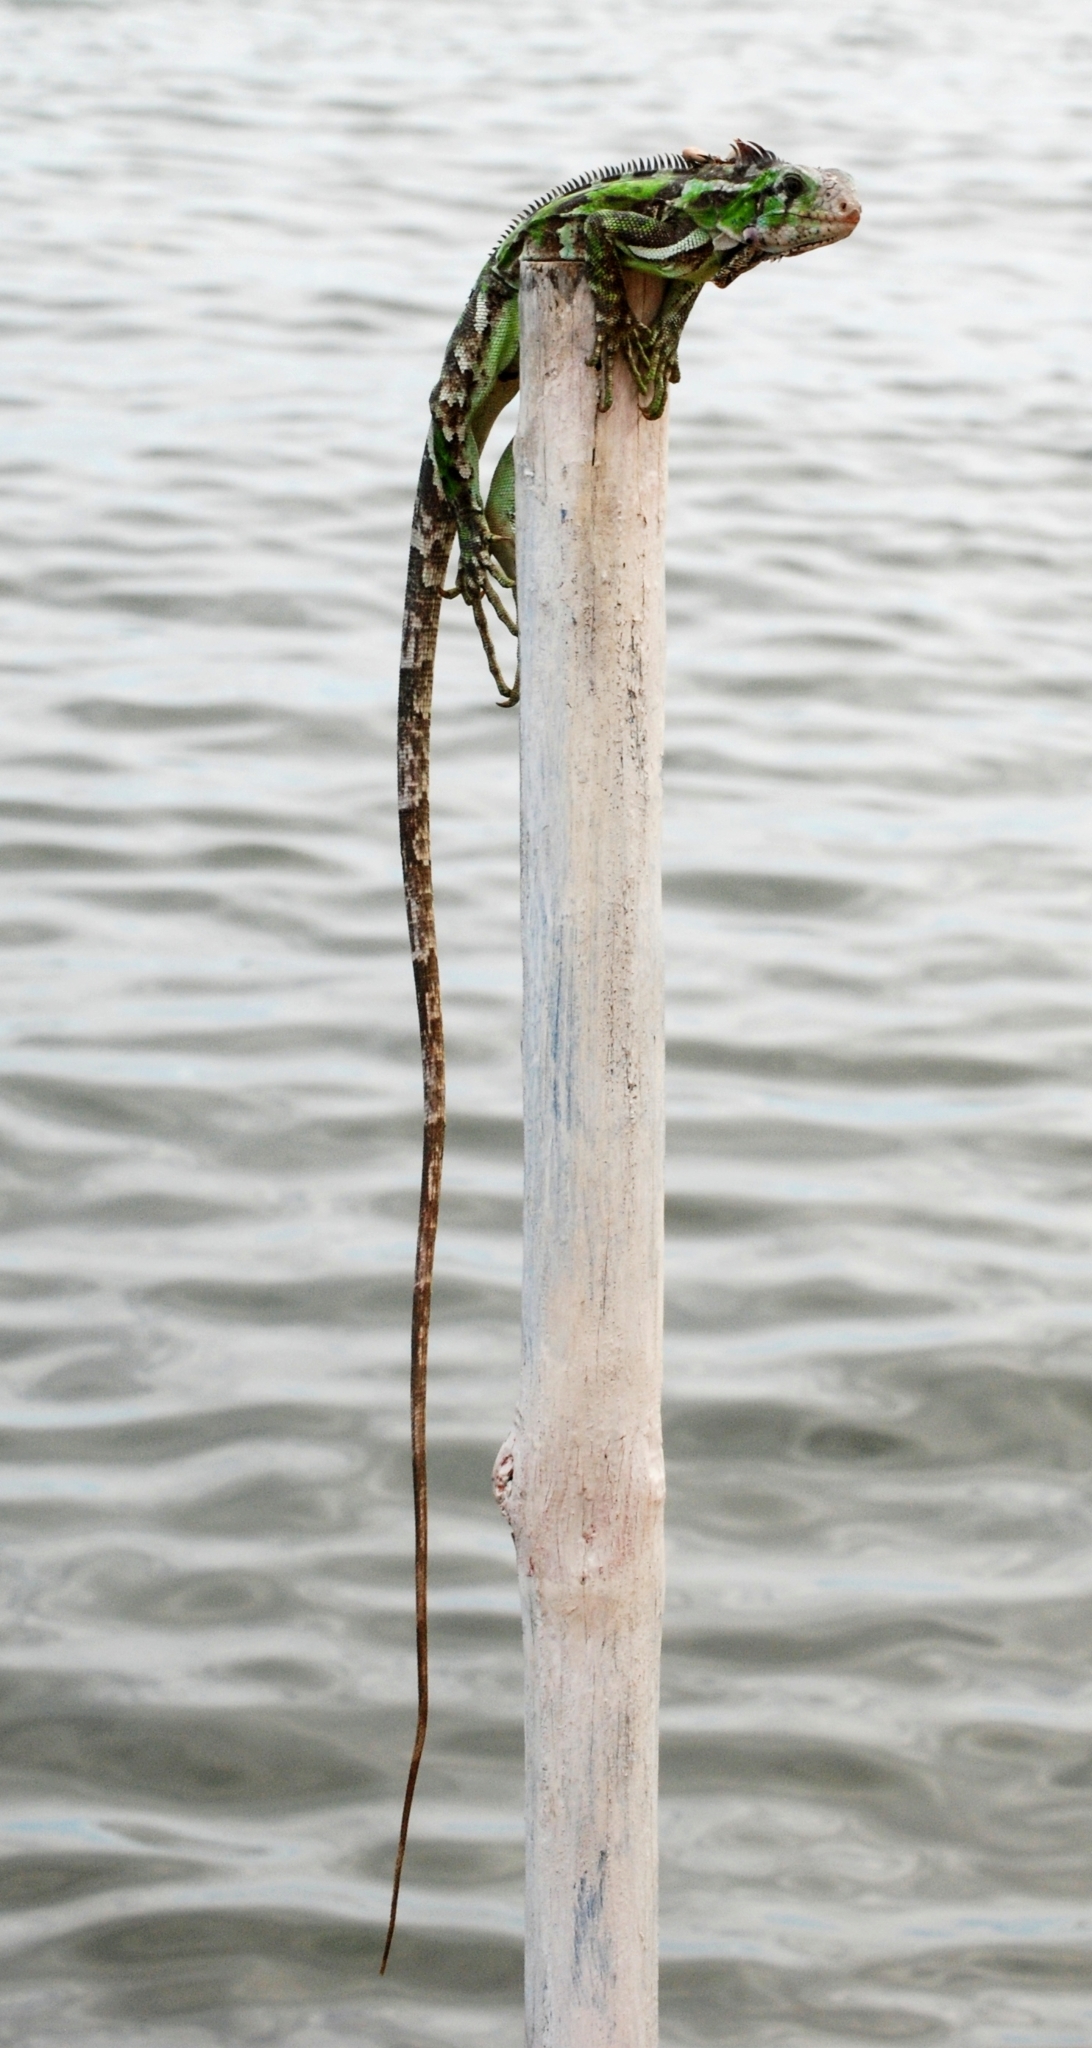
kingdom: Animalia
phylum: Chordata
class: Squamata
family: Iguanidae
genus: Iguana
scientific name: Iguana iguana
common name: Green iguana
